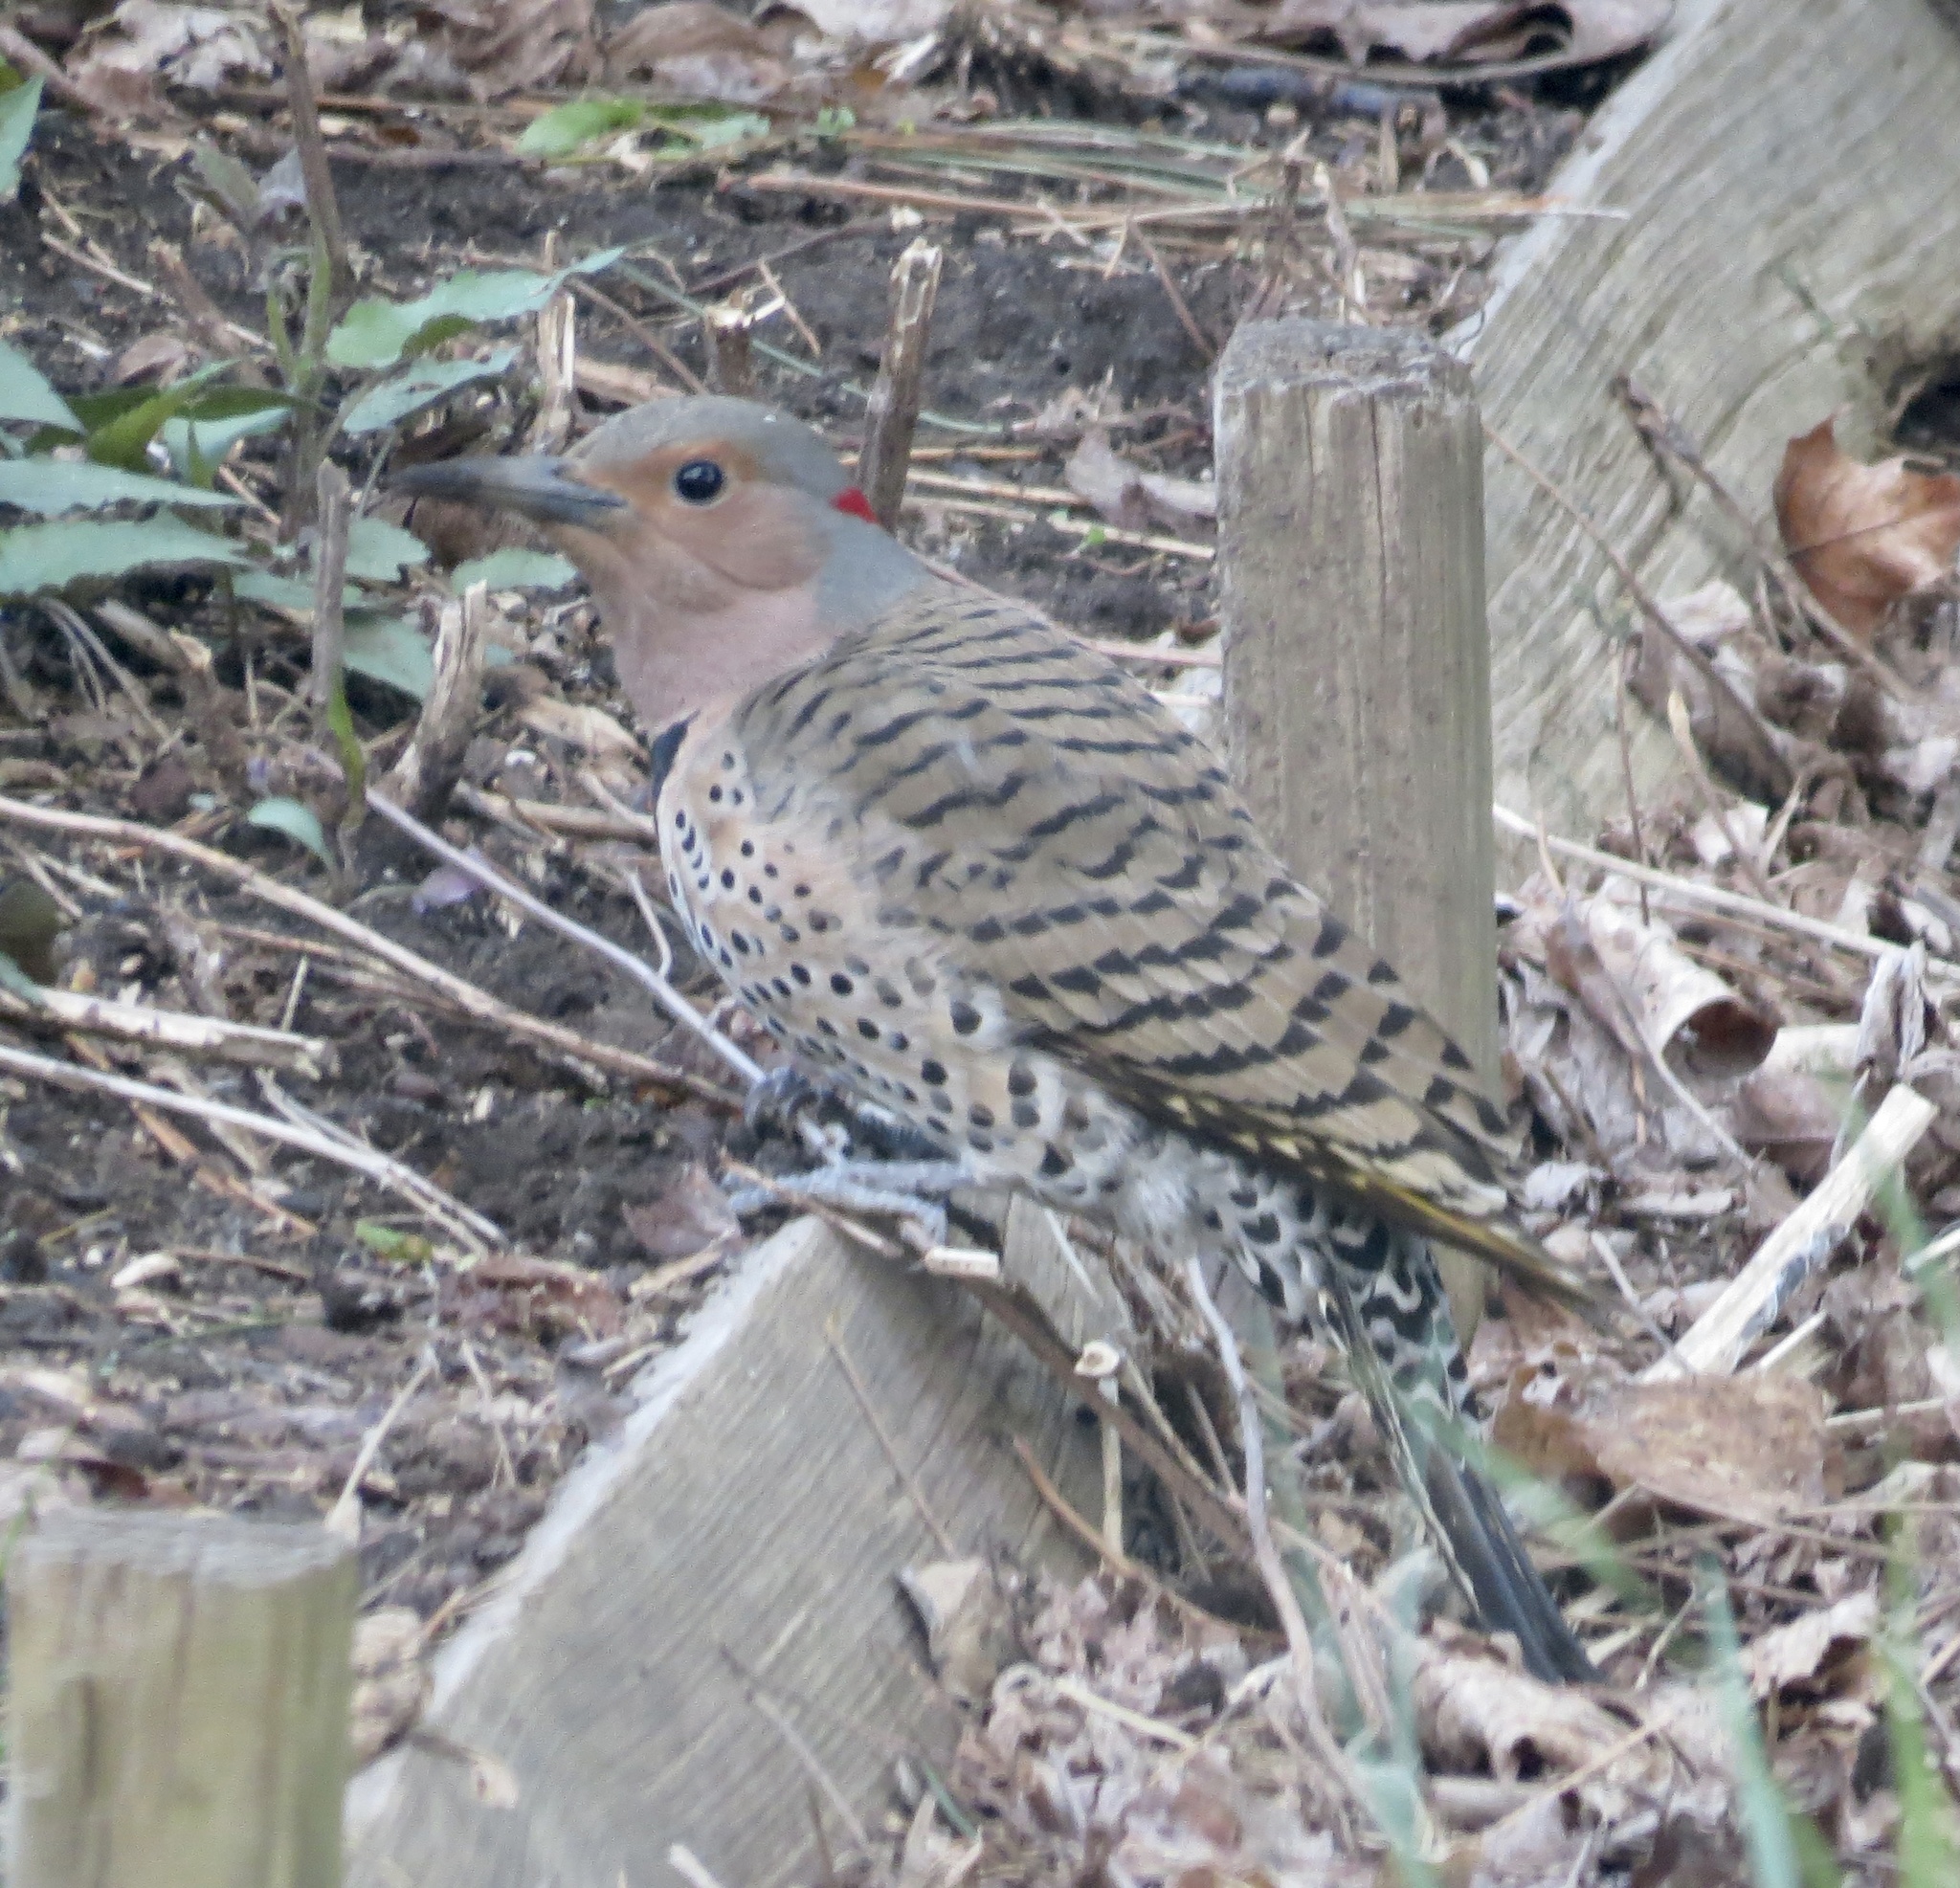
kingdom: Animalia
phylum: Chordata
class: Aves
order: Piciformes
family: Picidae
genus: Colaptes
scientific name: Colaptes auratus
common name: Northern flicker
